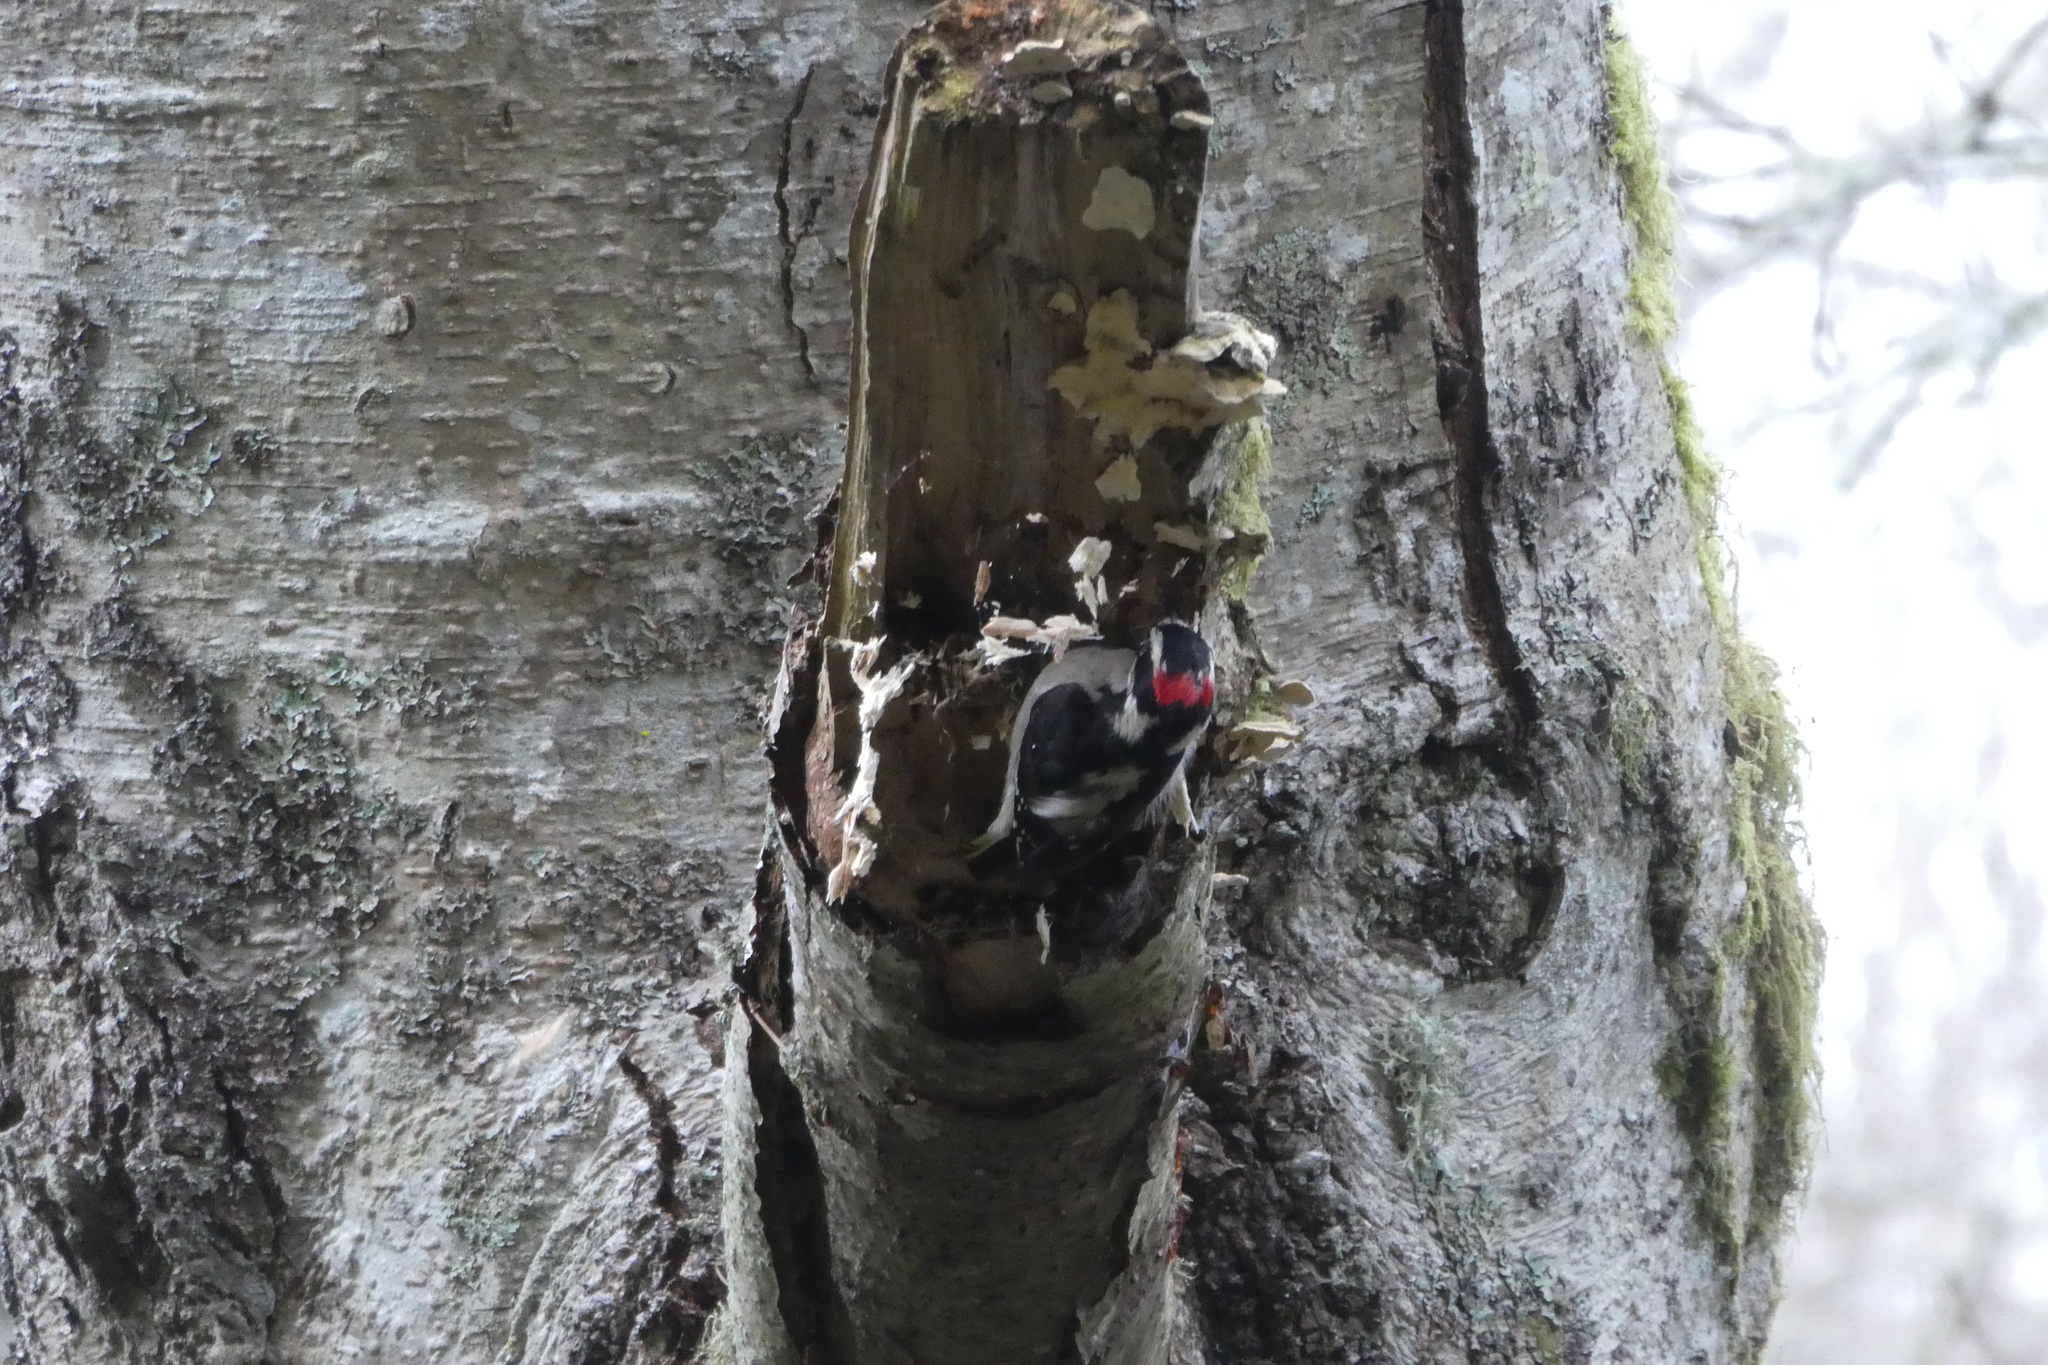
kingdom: Animalia
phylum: Chordata
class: Aves
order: Piciformes
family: Picidae
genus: Dryobates
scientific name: Dryobates pubescens
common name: Downy woodpecker
